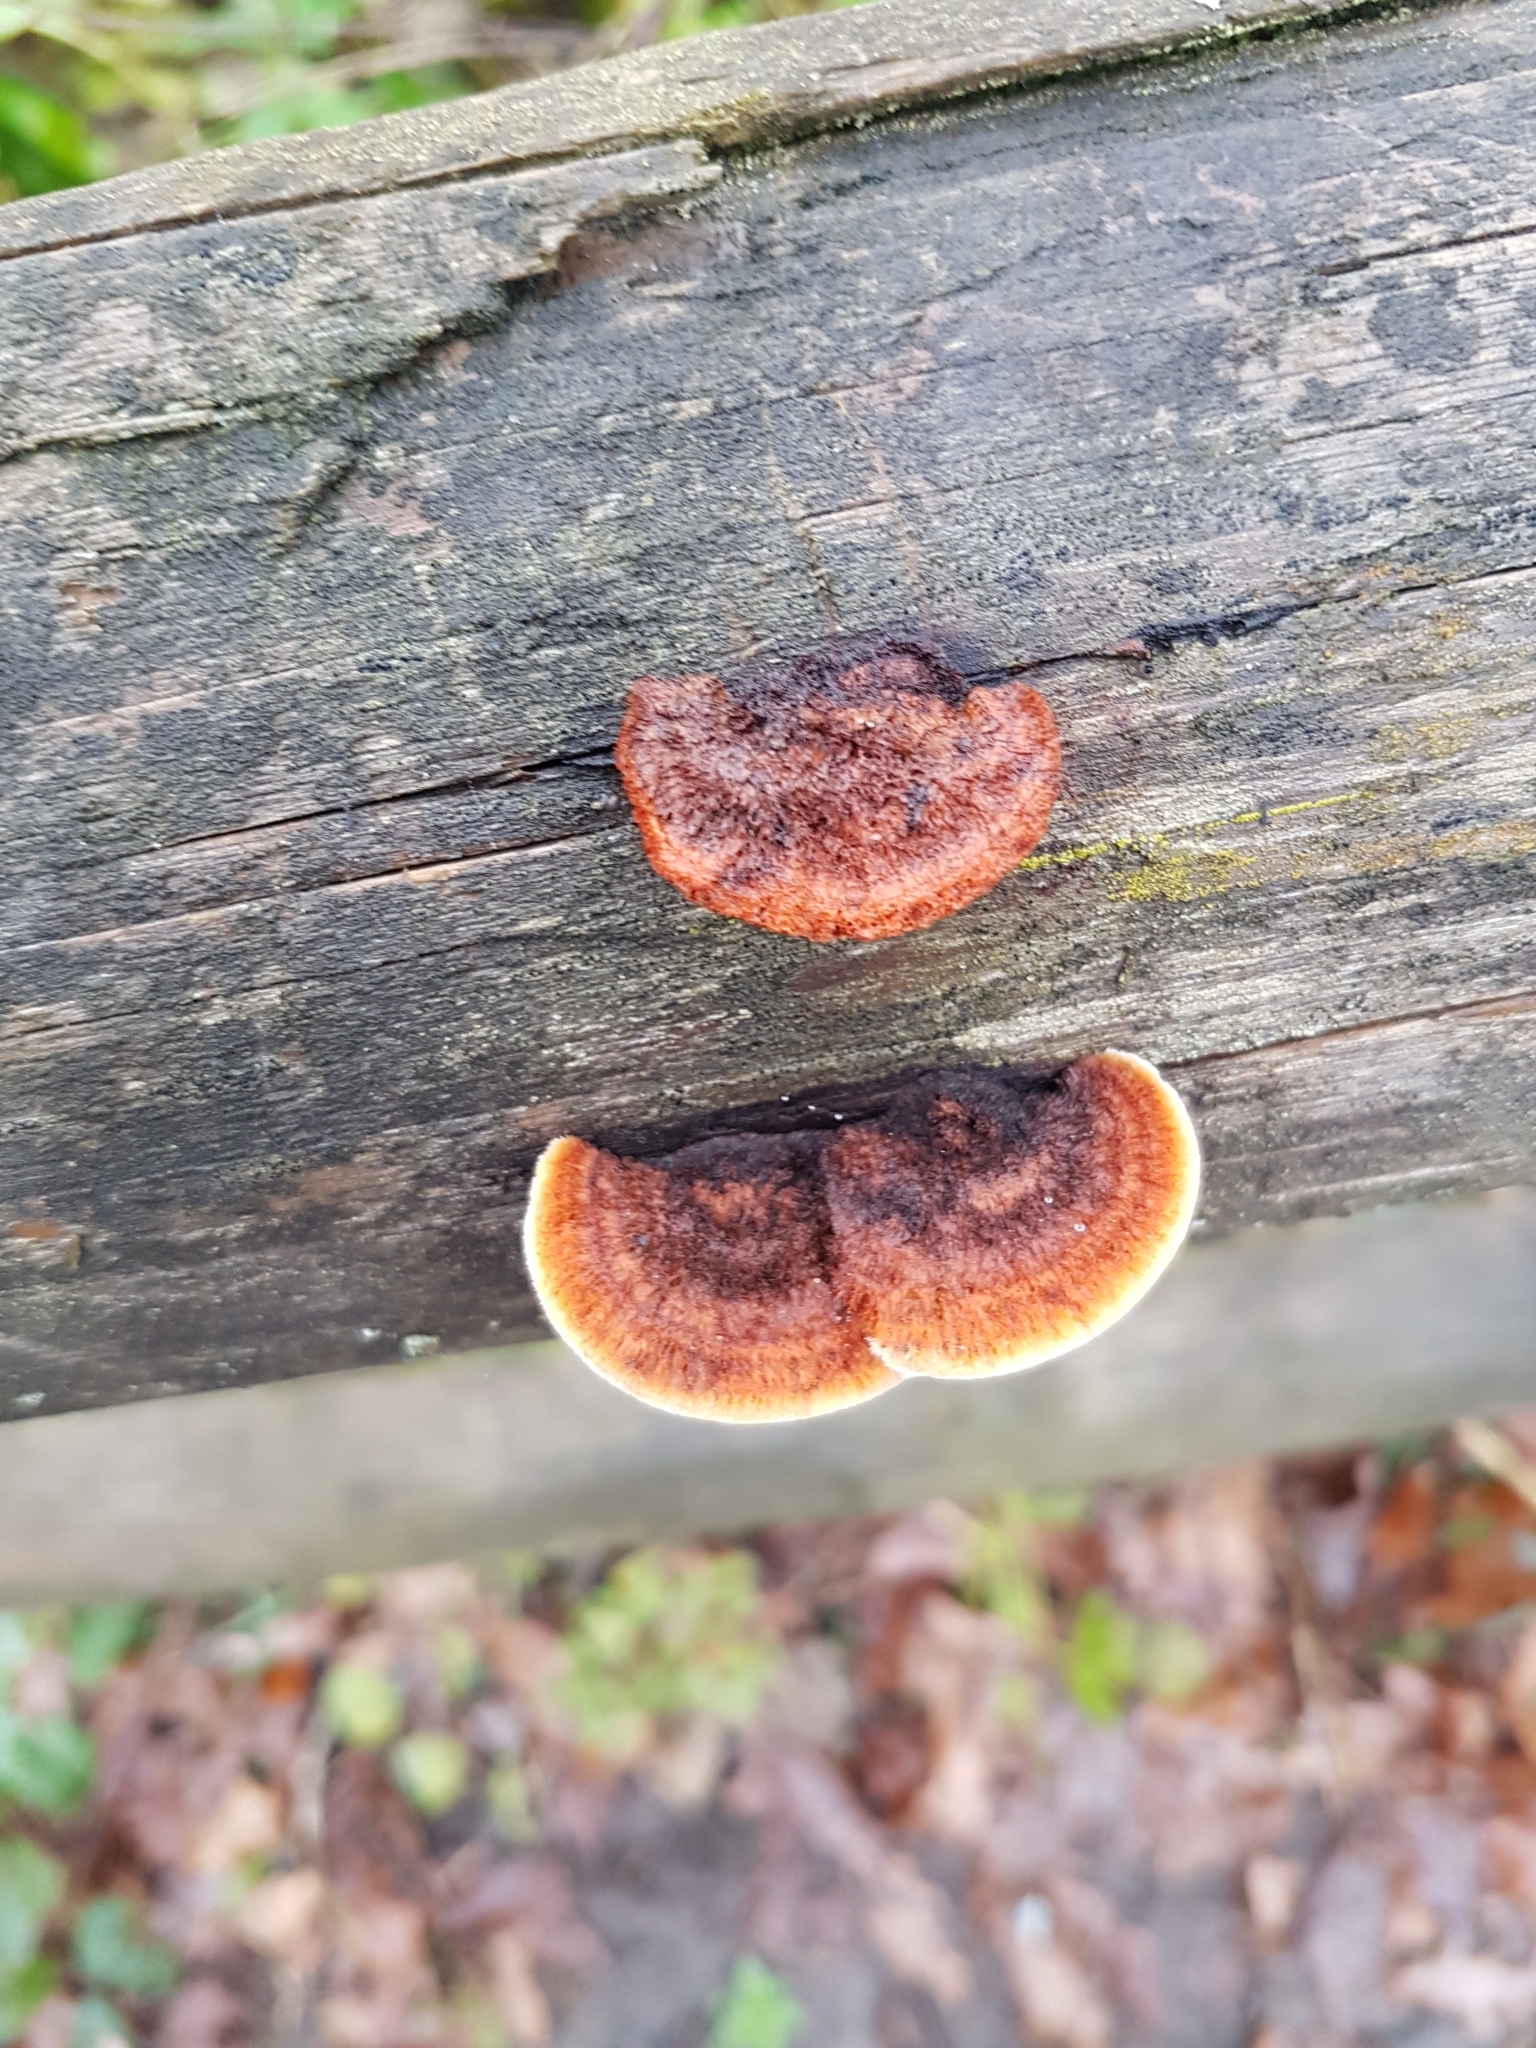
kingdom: Fungi
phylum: Basidiomycota
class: Agaricomycetes
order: Gloeophyllales
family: Gloeophyllaceae
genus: Gloeophyllum
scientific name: Gloeophyllum sepiarium
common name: Conifer mazegill
